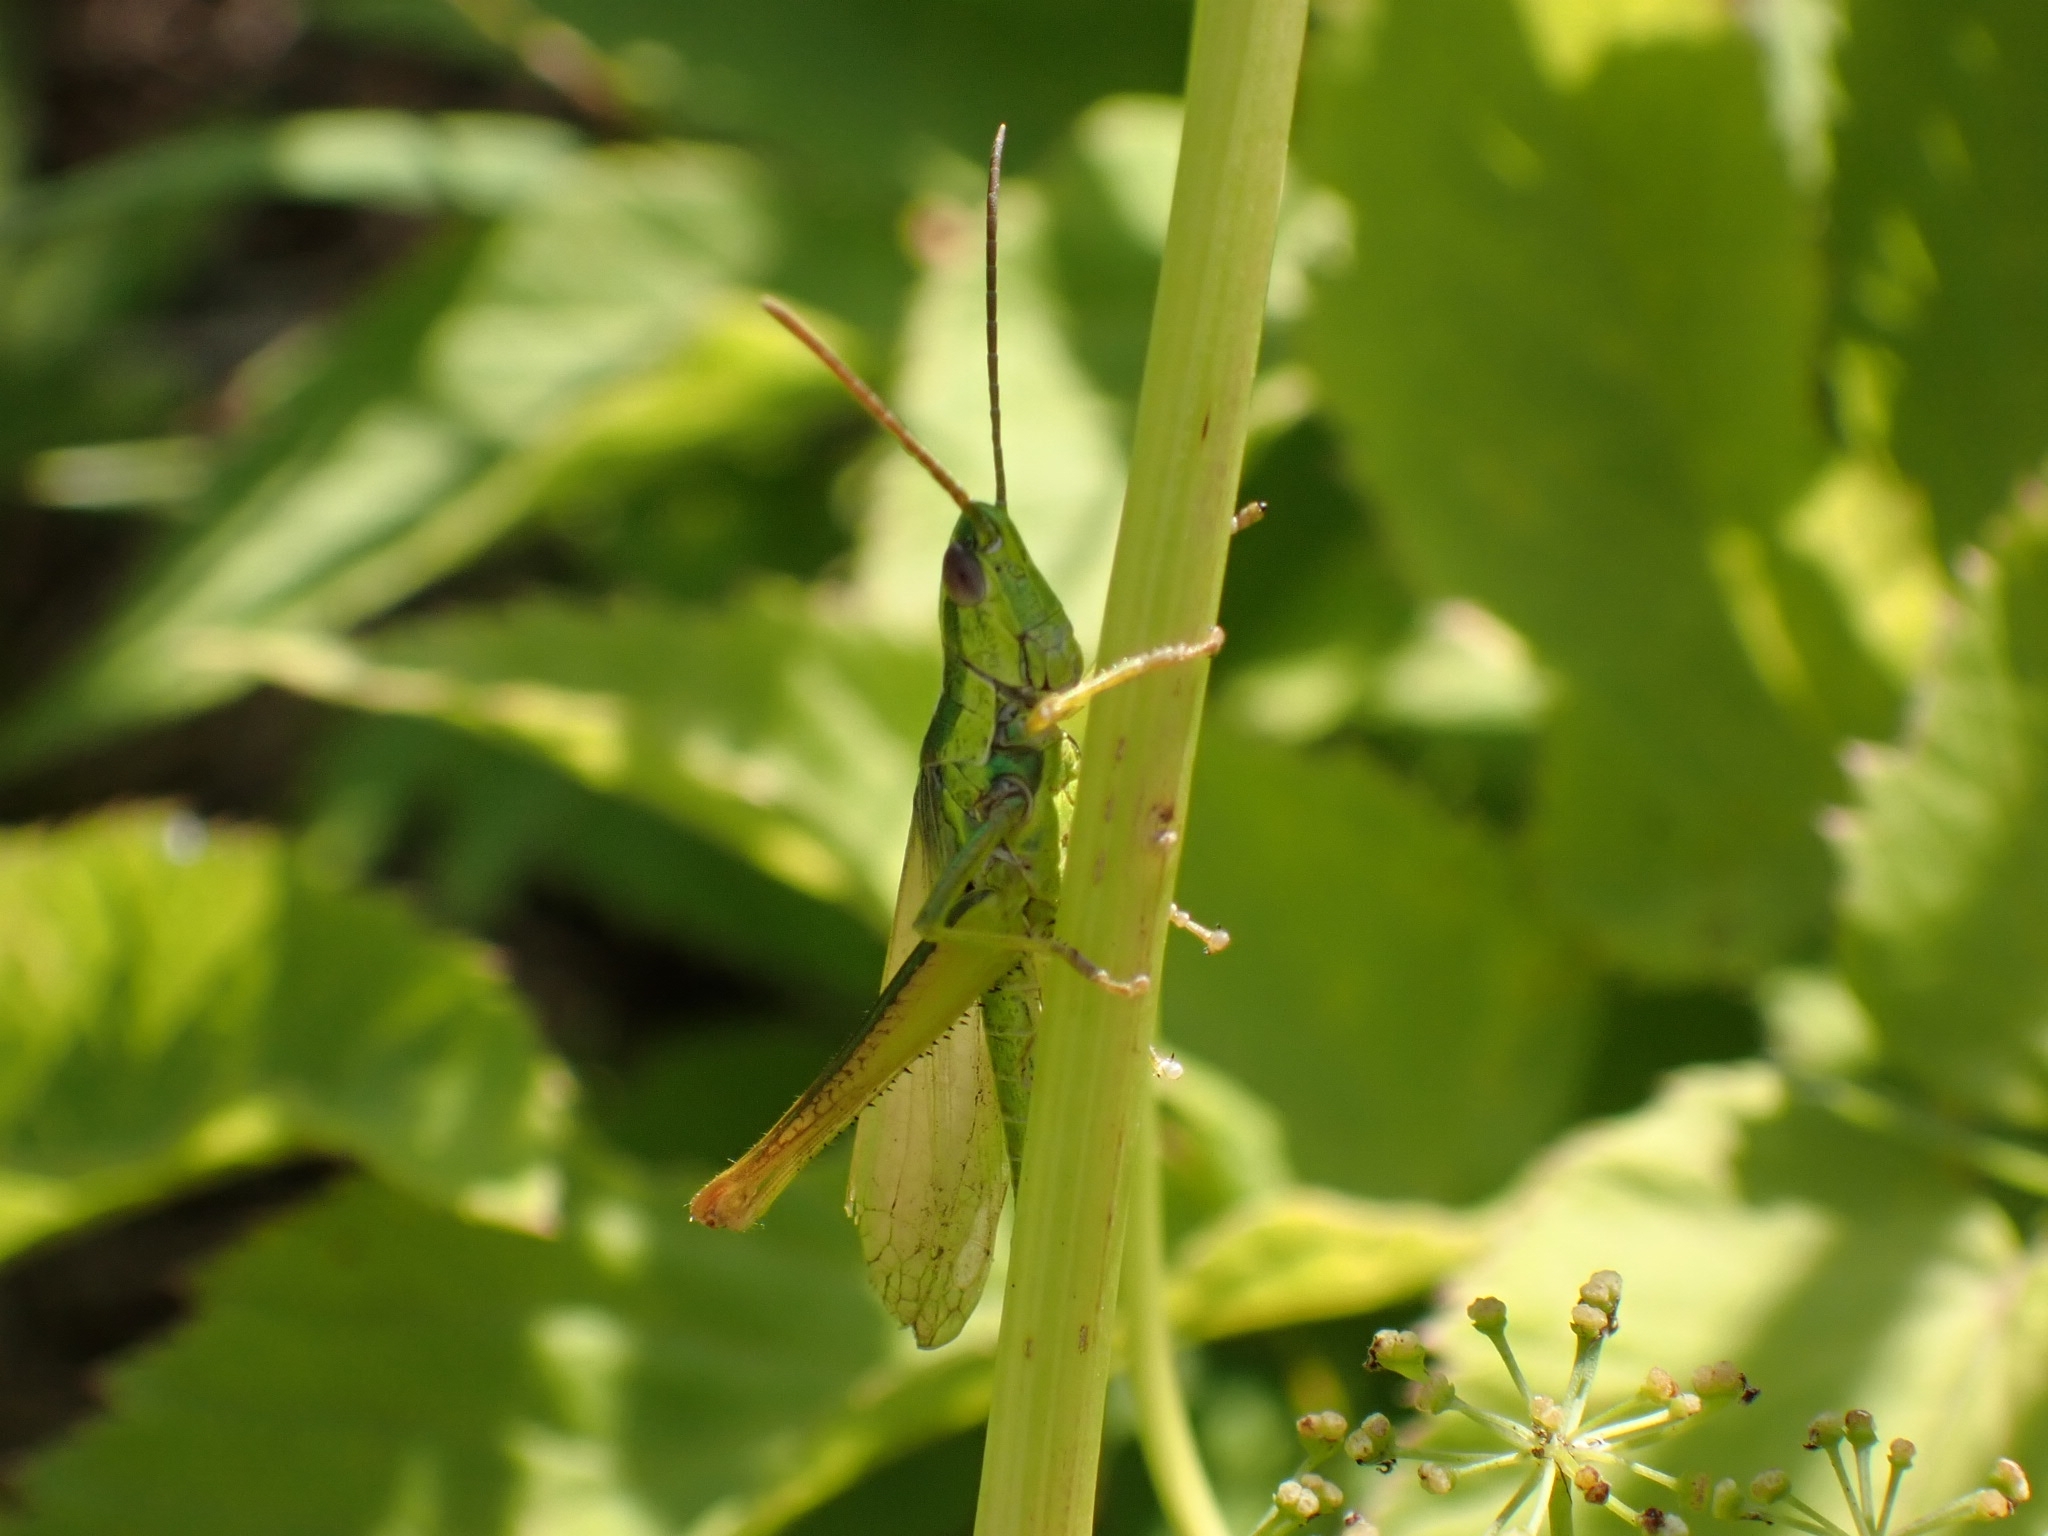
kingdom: Animalia
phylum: Arthropoda
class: Insecta
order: Orthoptera
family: Acrididae
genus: Euthystira
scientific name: Euthystira brachyptera
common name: Small gold grasshopper
